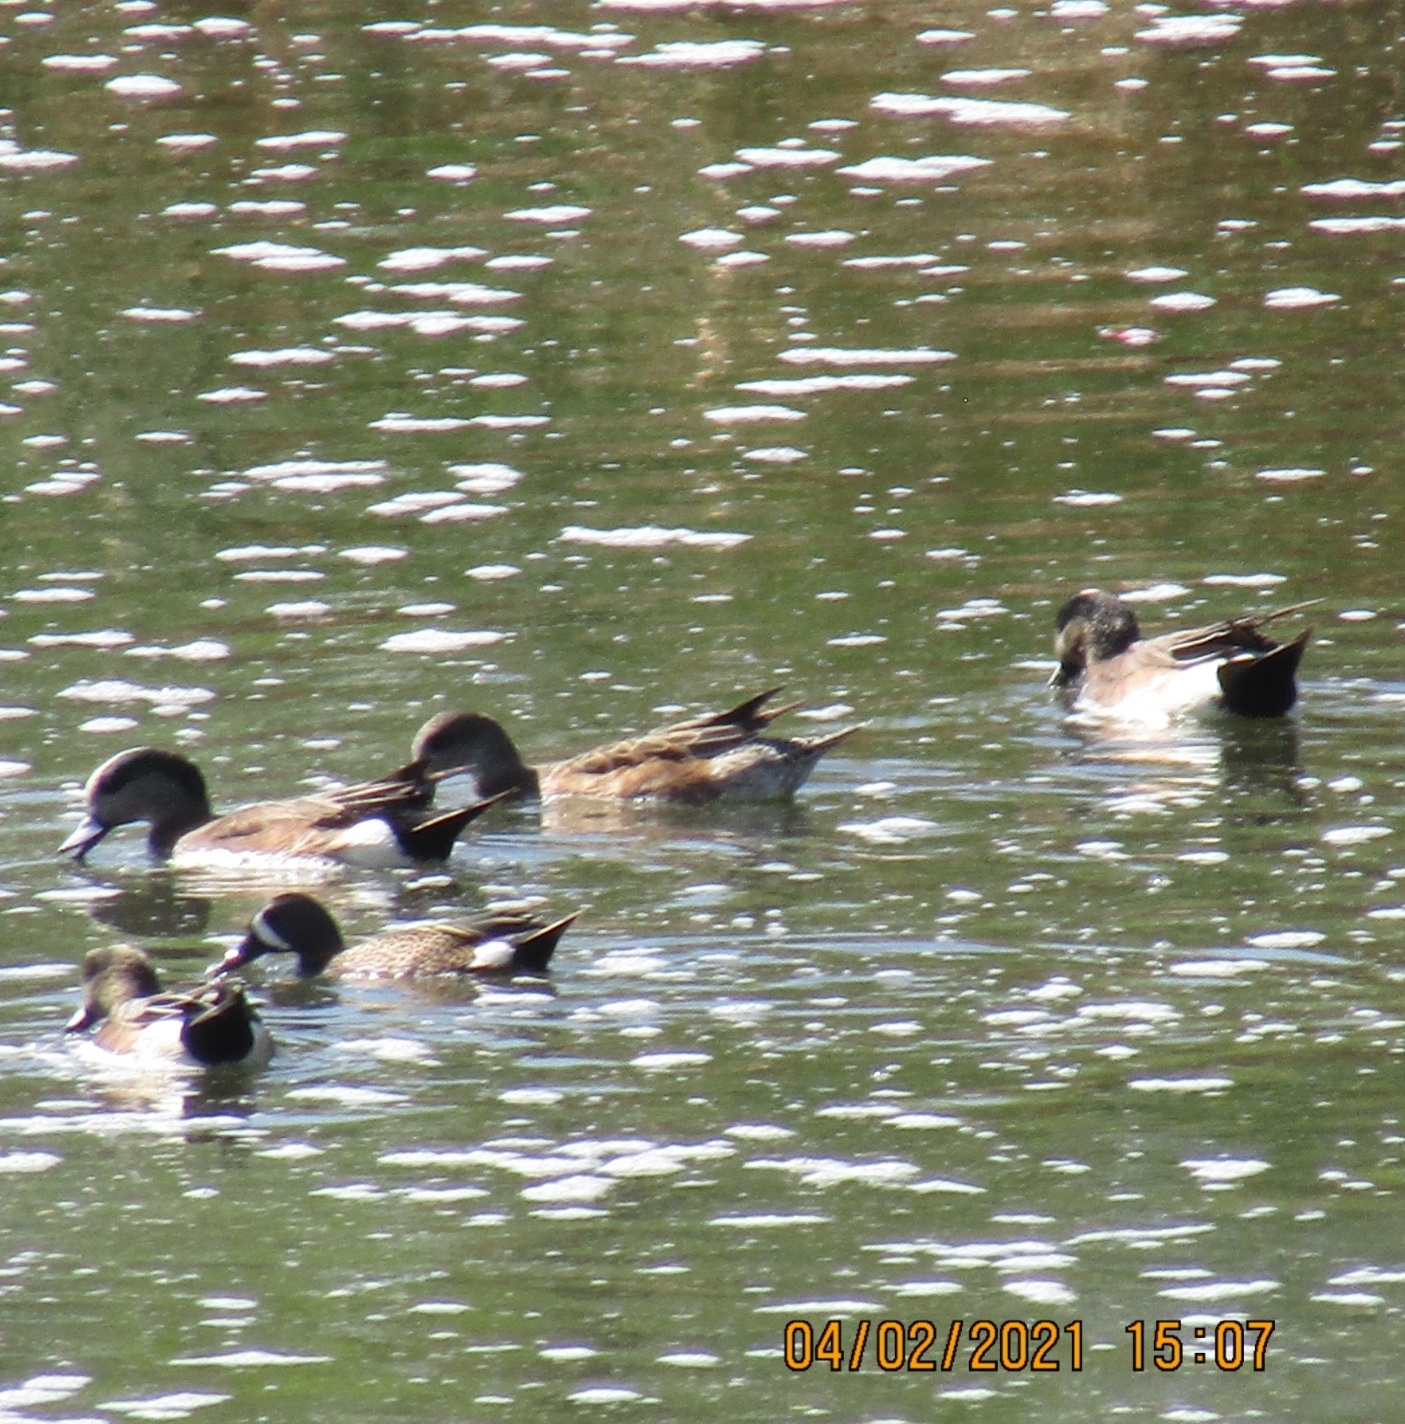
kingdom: Animalia
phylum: Chordata
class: Aves
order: Anseriformes
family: Anatidae
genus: Spatula
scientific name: Spatula discors
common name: Blue-winged teal
